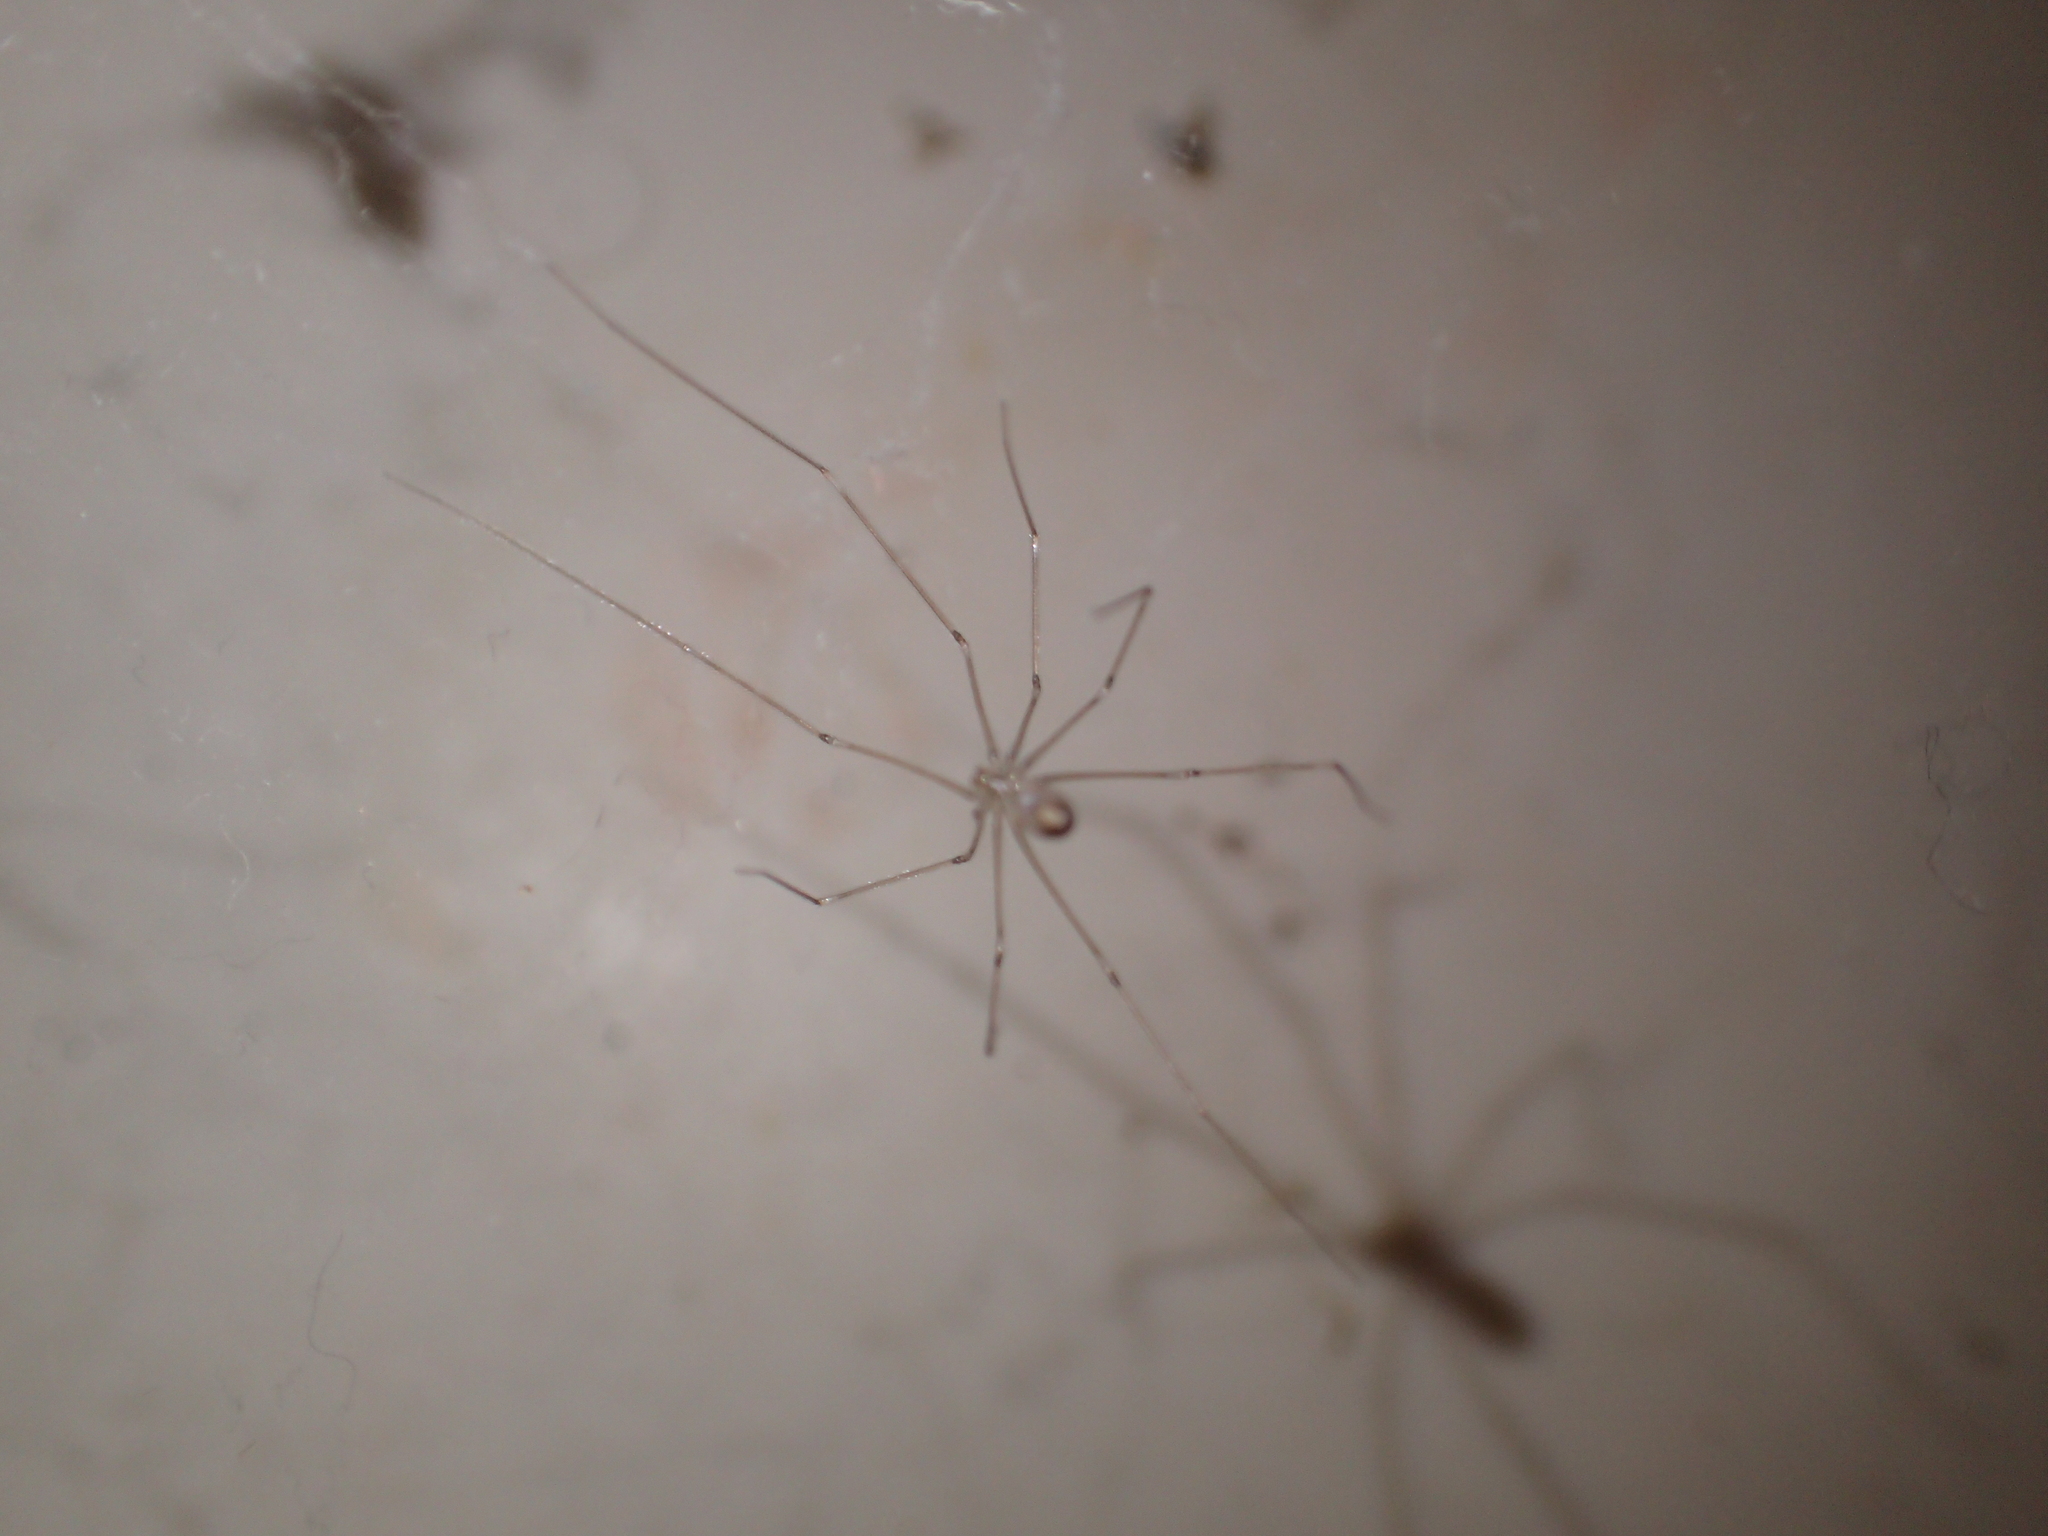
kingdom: Animalia
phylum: Arthropoda
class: Arachnida
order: Araneae
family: Pholcidae
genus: Pholcus
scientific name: Pholcus phalangioides
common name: Longbodied cellar spider
